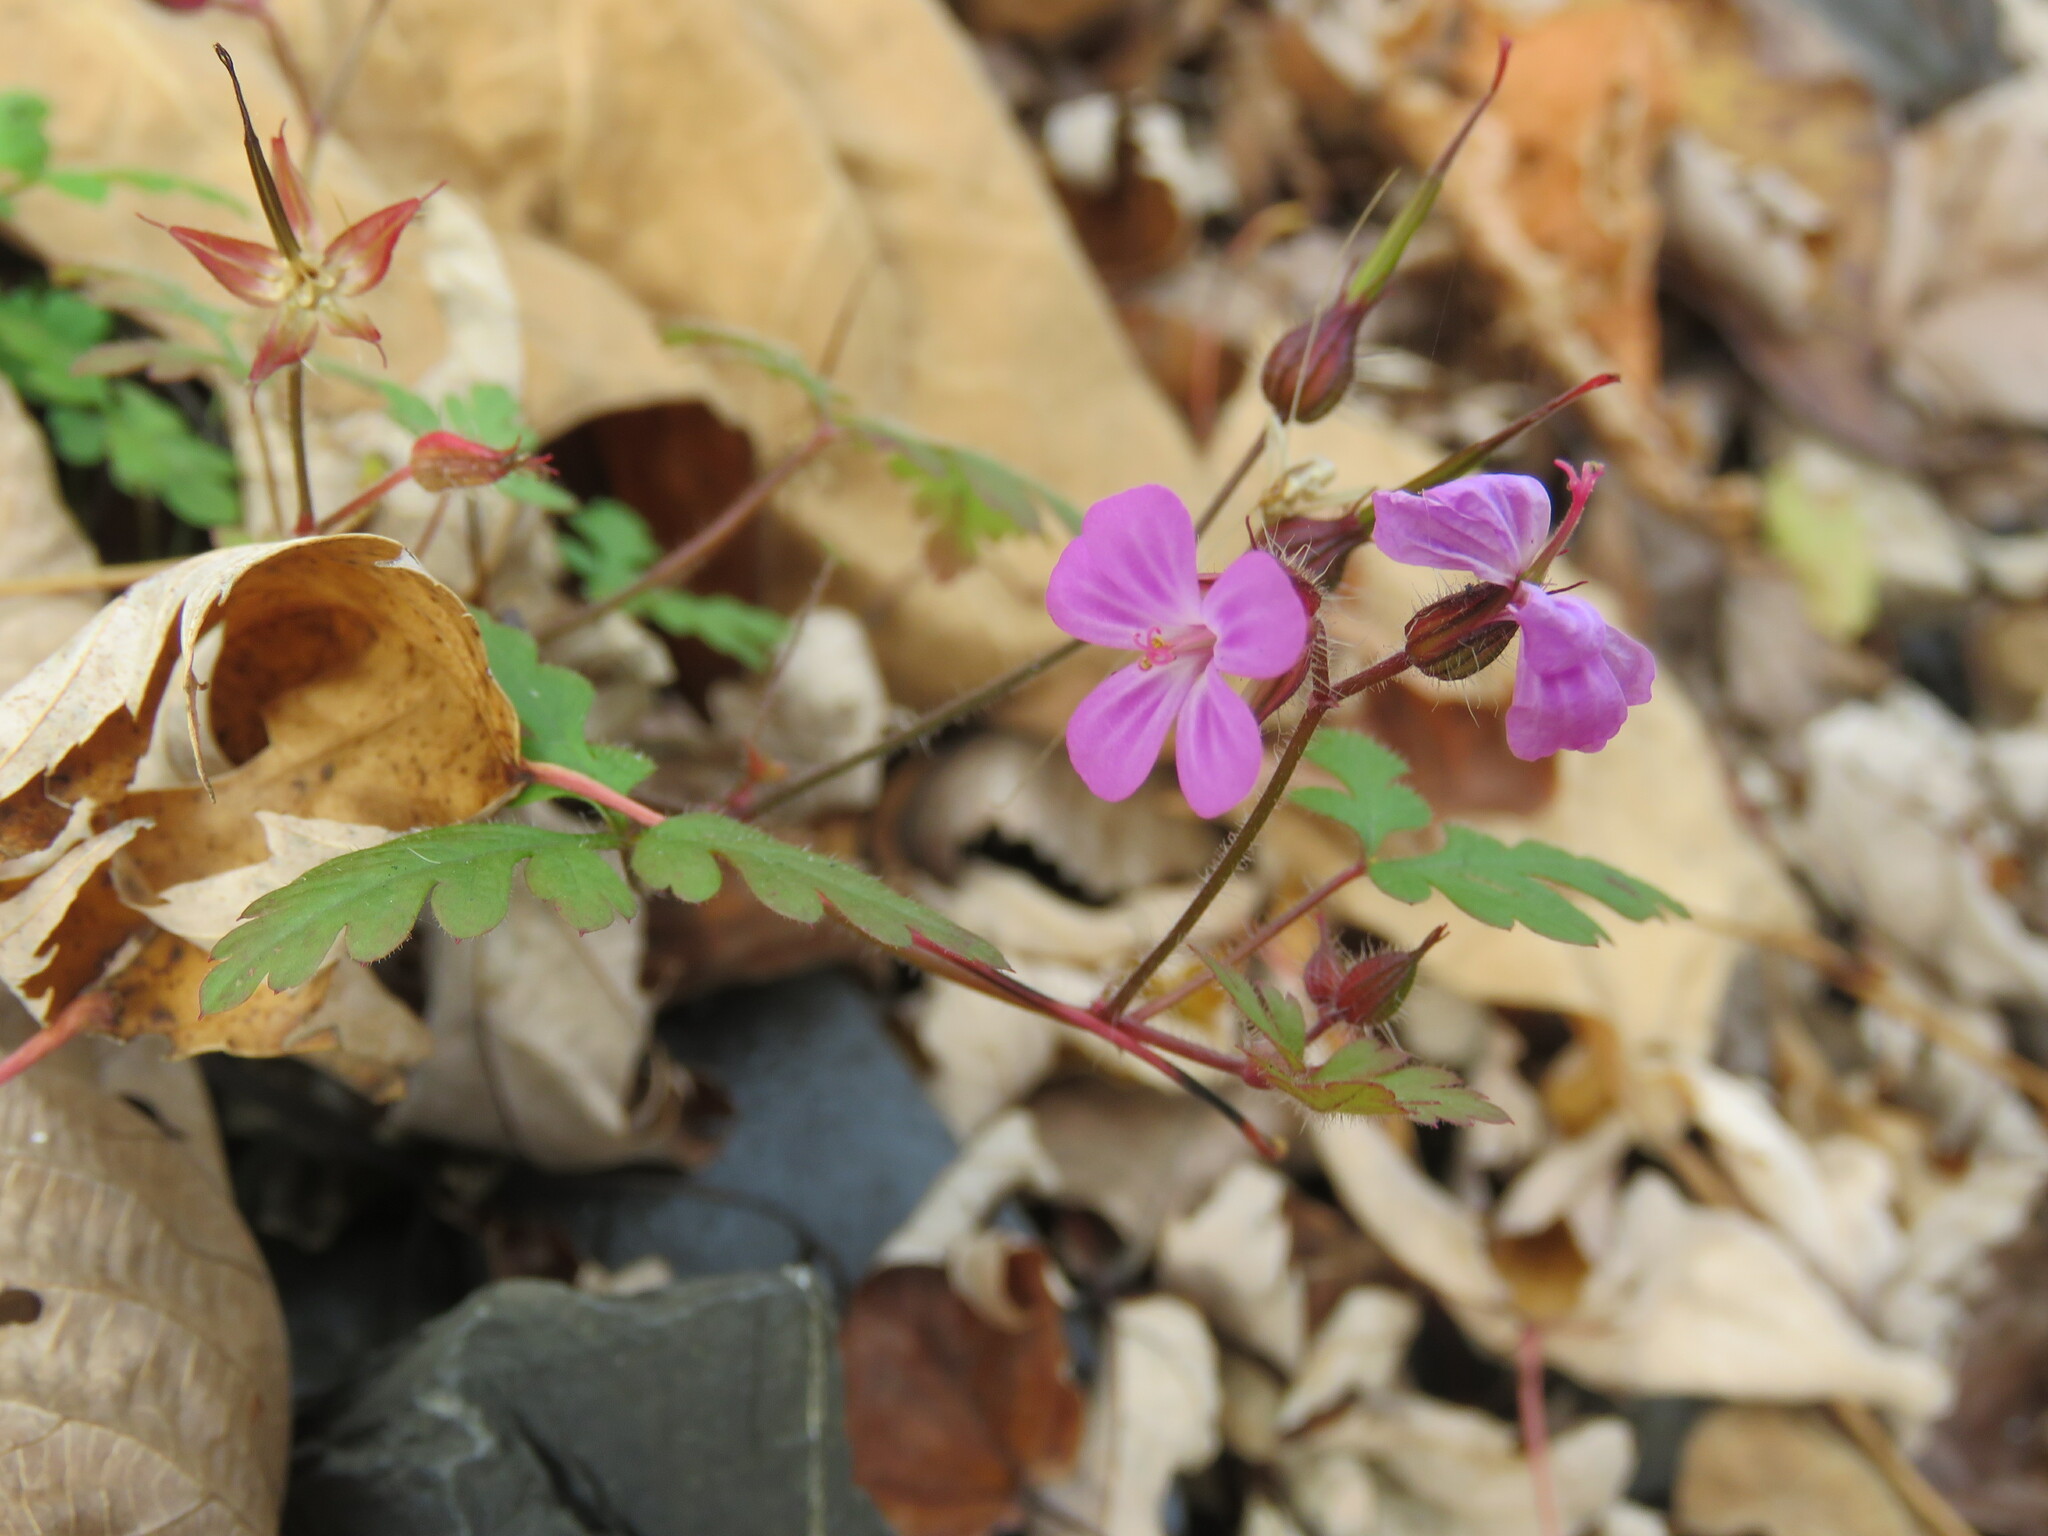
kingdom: Plantae
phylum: Tracheophyta
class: Magnoliopsida
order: Geraniales
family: Geraniaceae
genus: Geranium
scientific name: Geranium robertianum
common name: Herb-robert
